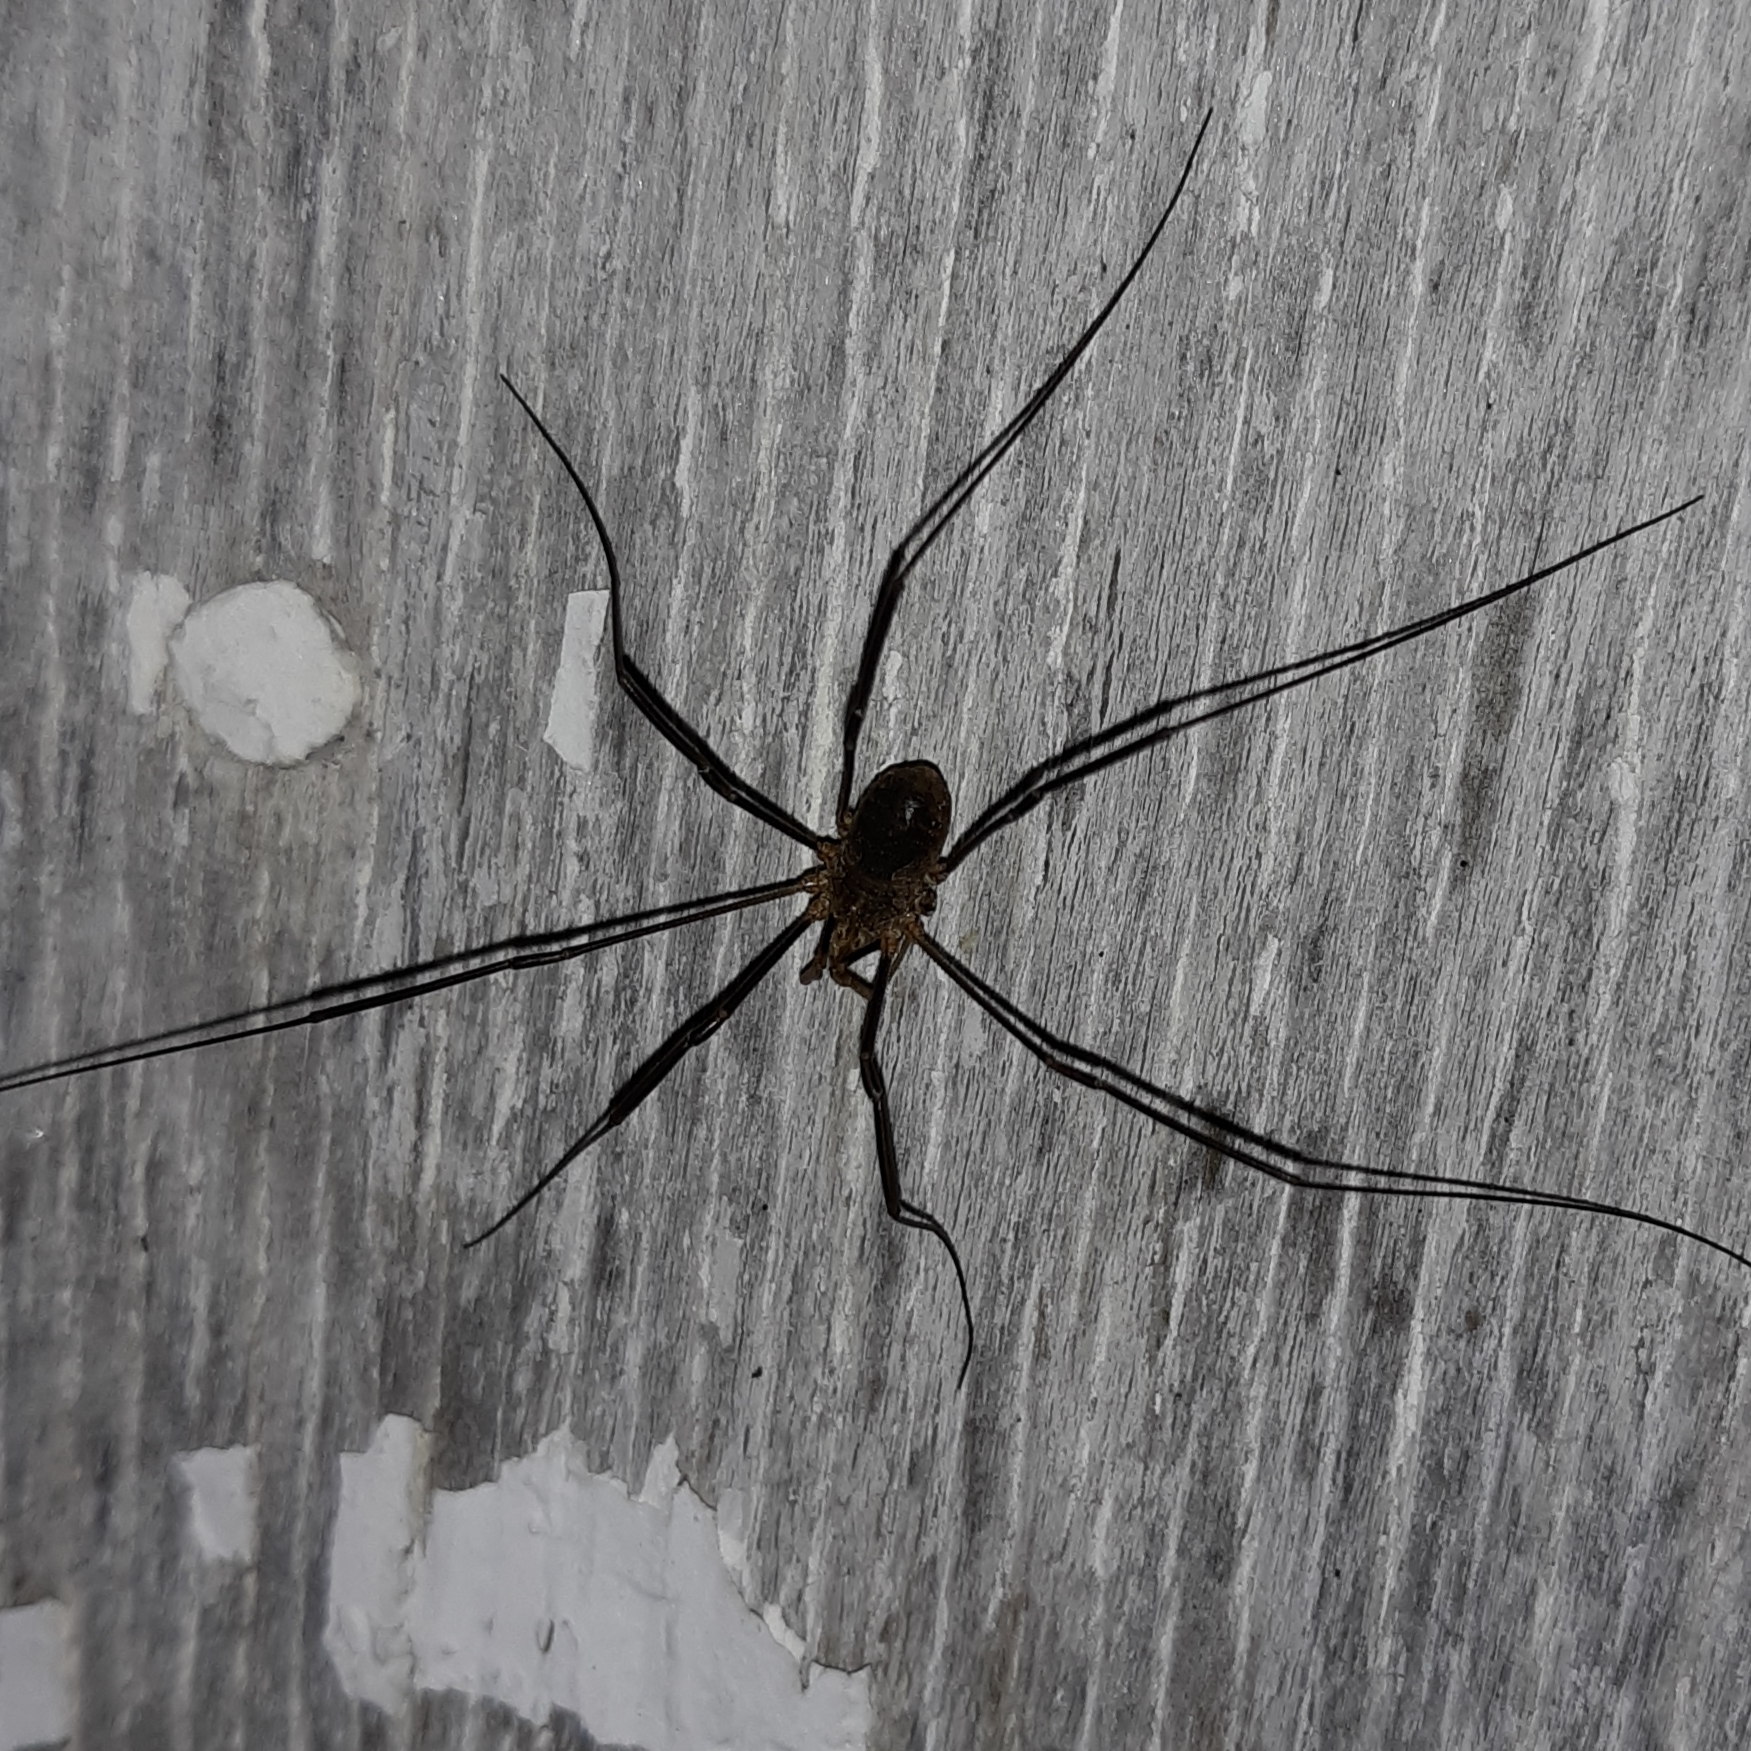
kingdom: Animalia
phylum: Arthropoda
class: Arachnida
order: Opiliones
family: Phalangiidae
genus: Phalangium
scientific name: Phalangium opilio
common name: Daddy longleg
